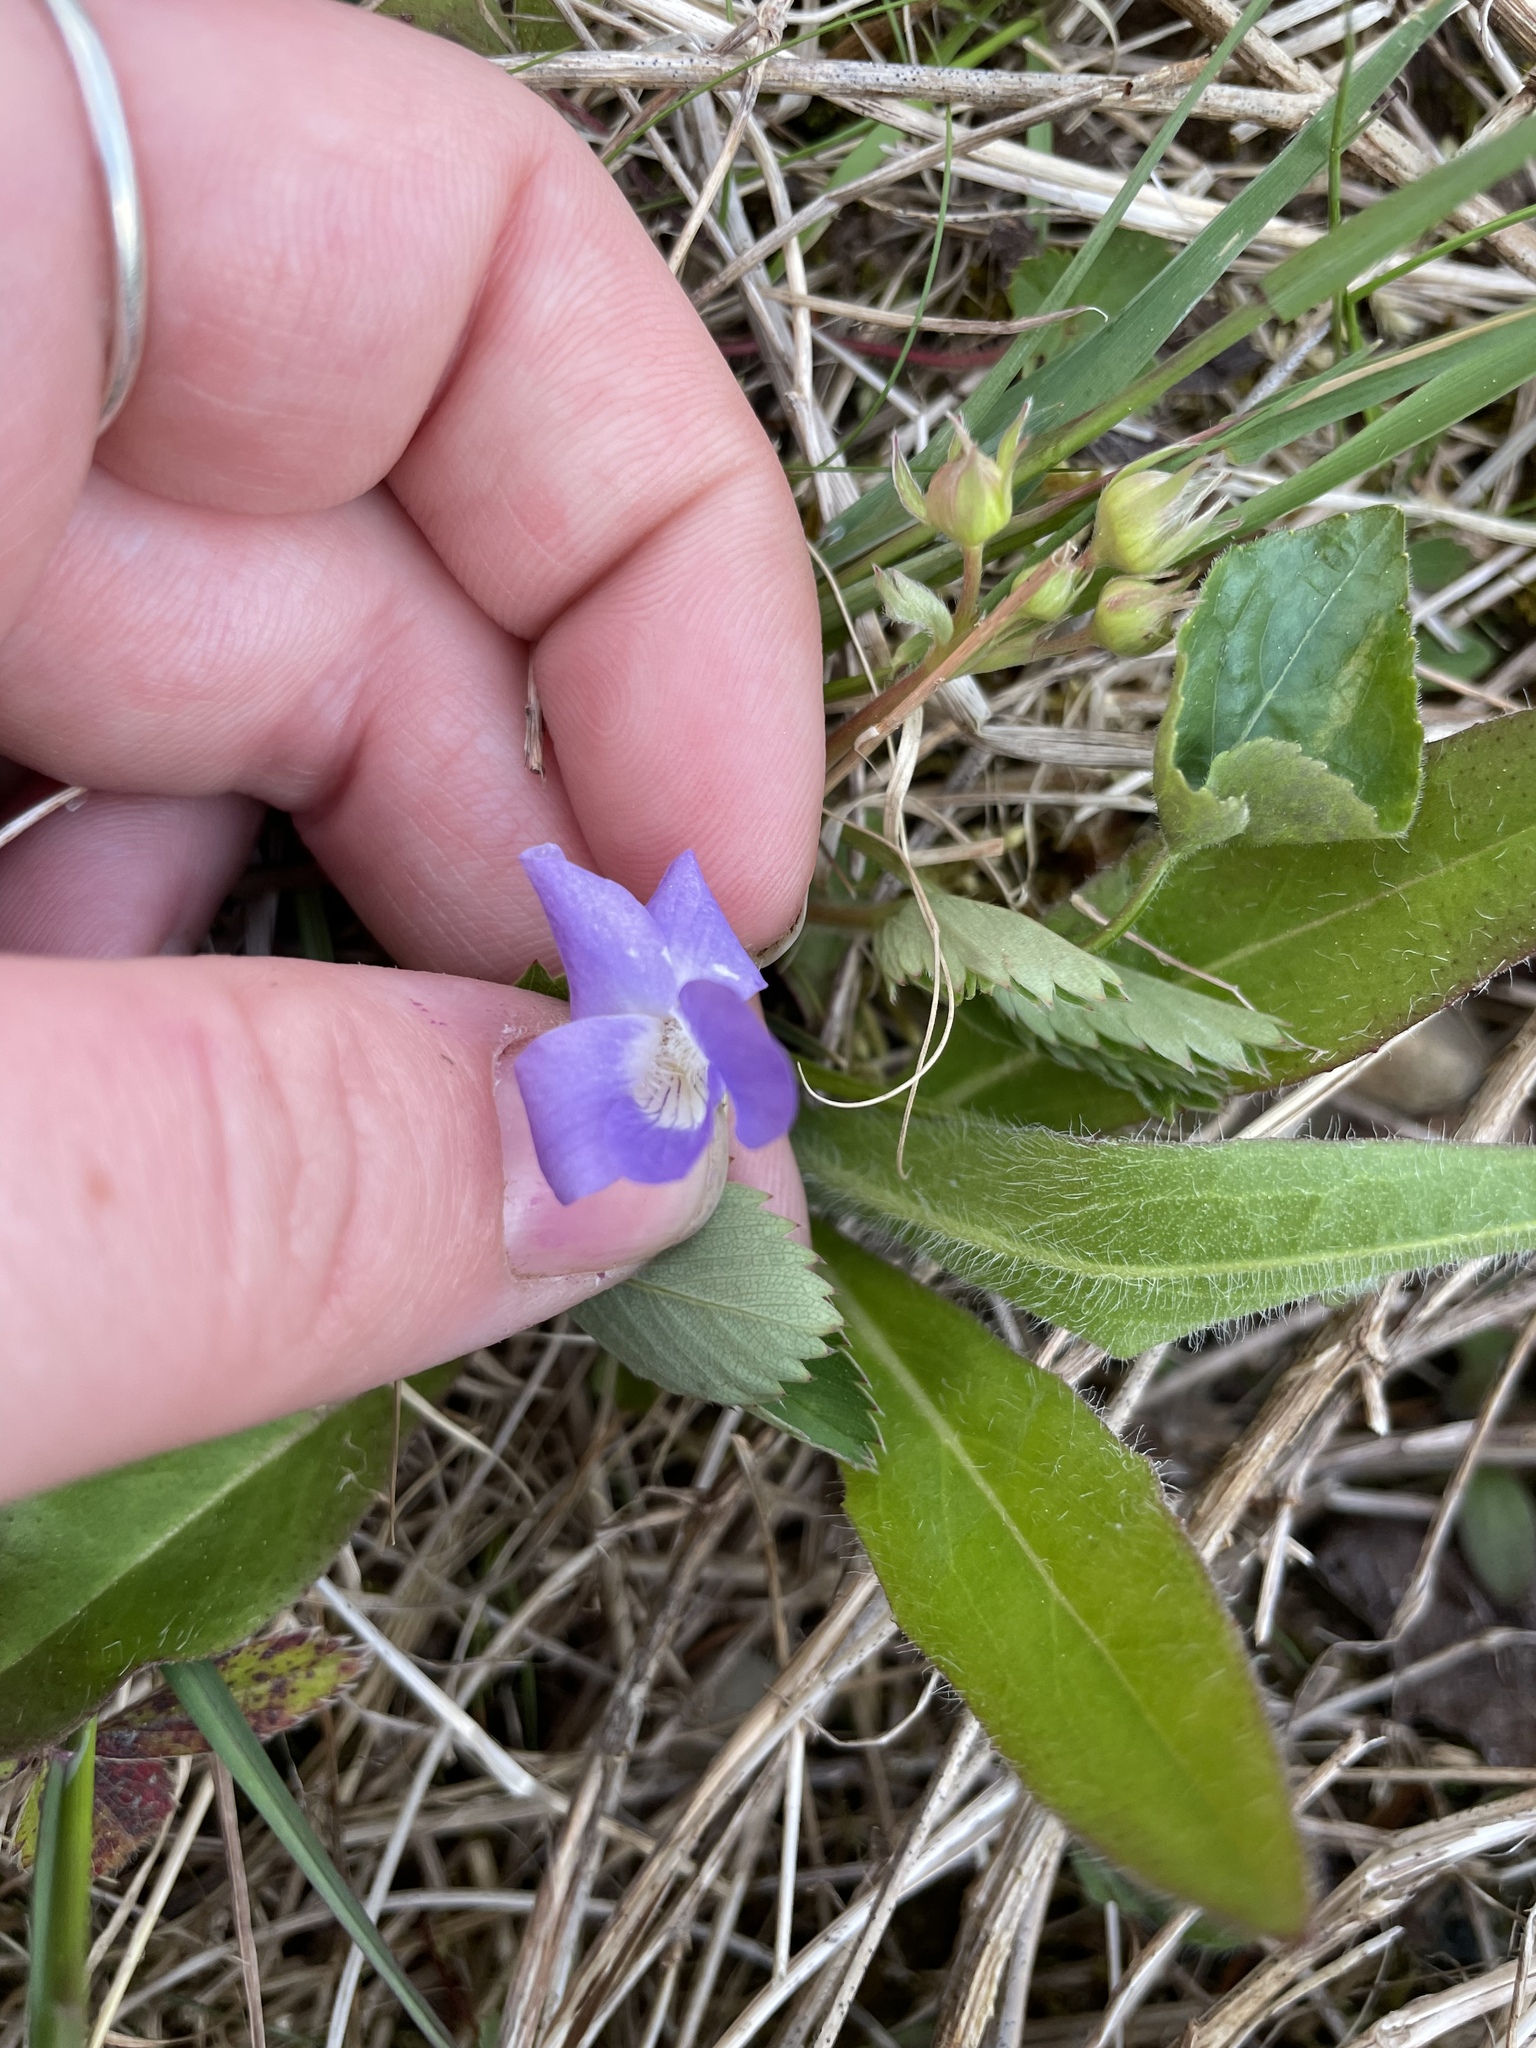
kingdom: Plantae
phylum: Tracheophyta
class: Magnoliopsida
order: Malpighiales
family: Violaceae
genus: Viola
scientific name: Viola sororia
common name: Dooryard violet
